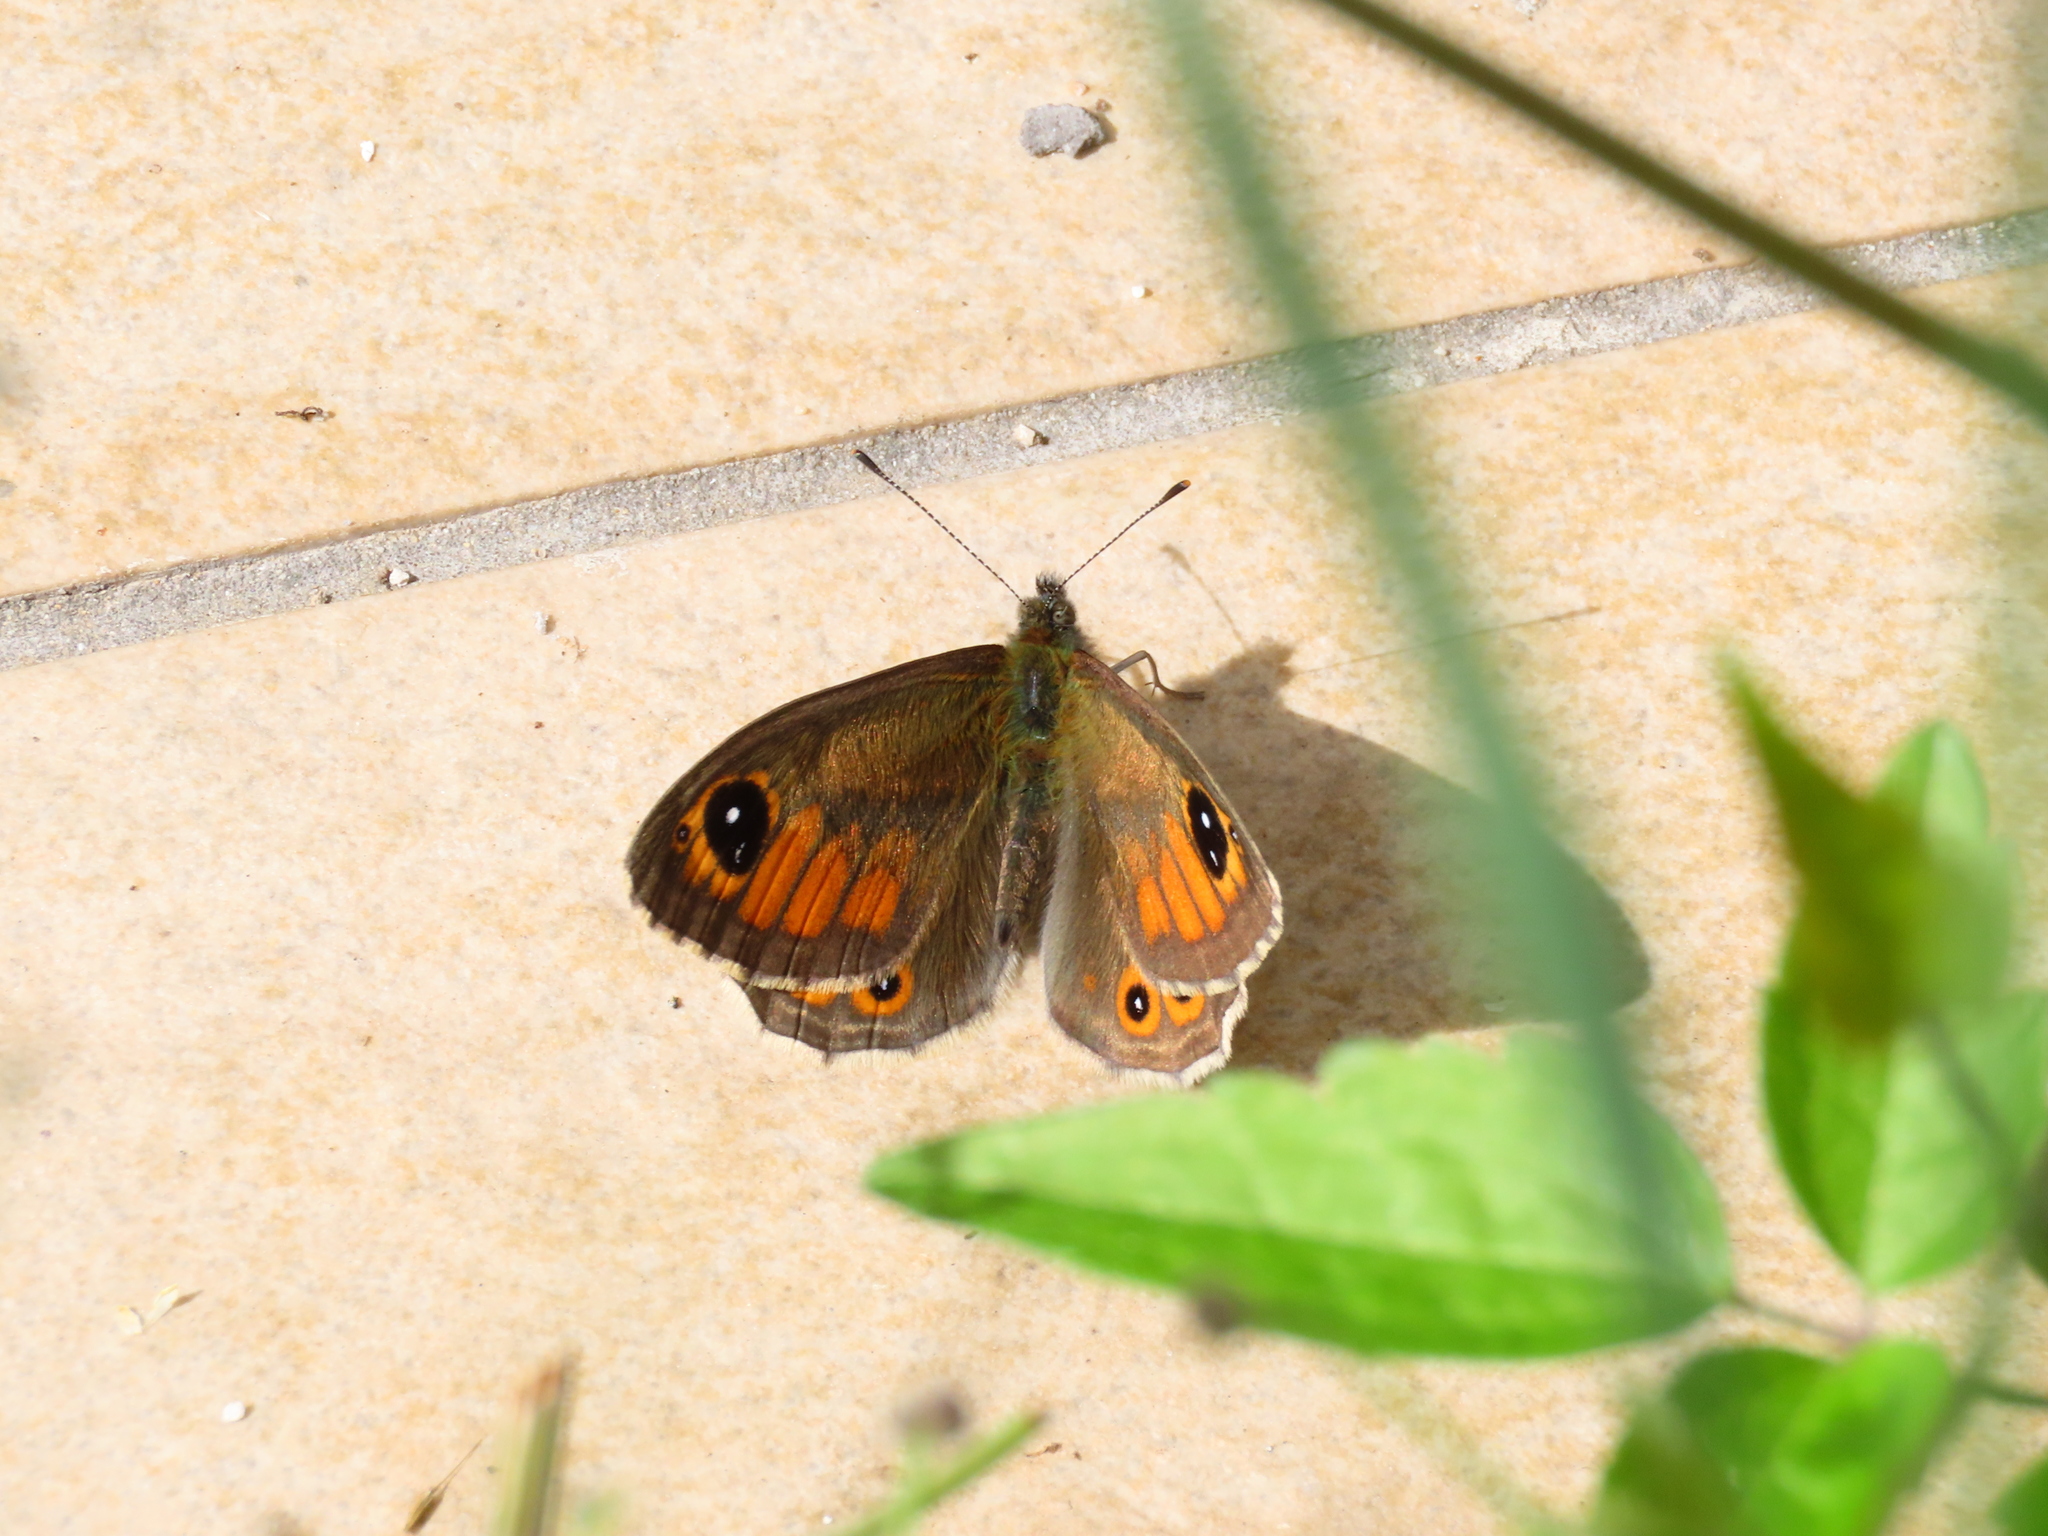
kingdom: Animalia
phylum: Arthropoda
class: Insecta
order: Lepidoptera
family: Nymphalidae
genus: Pararge
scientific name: Pararge Lasiommata maera
